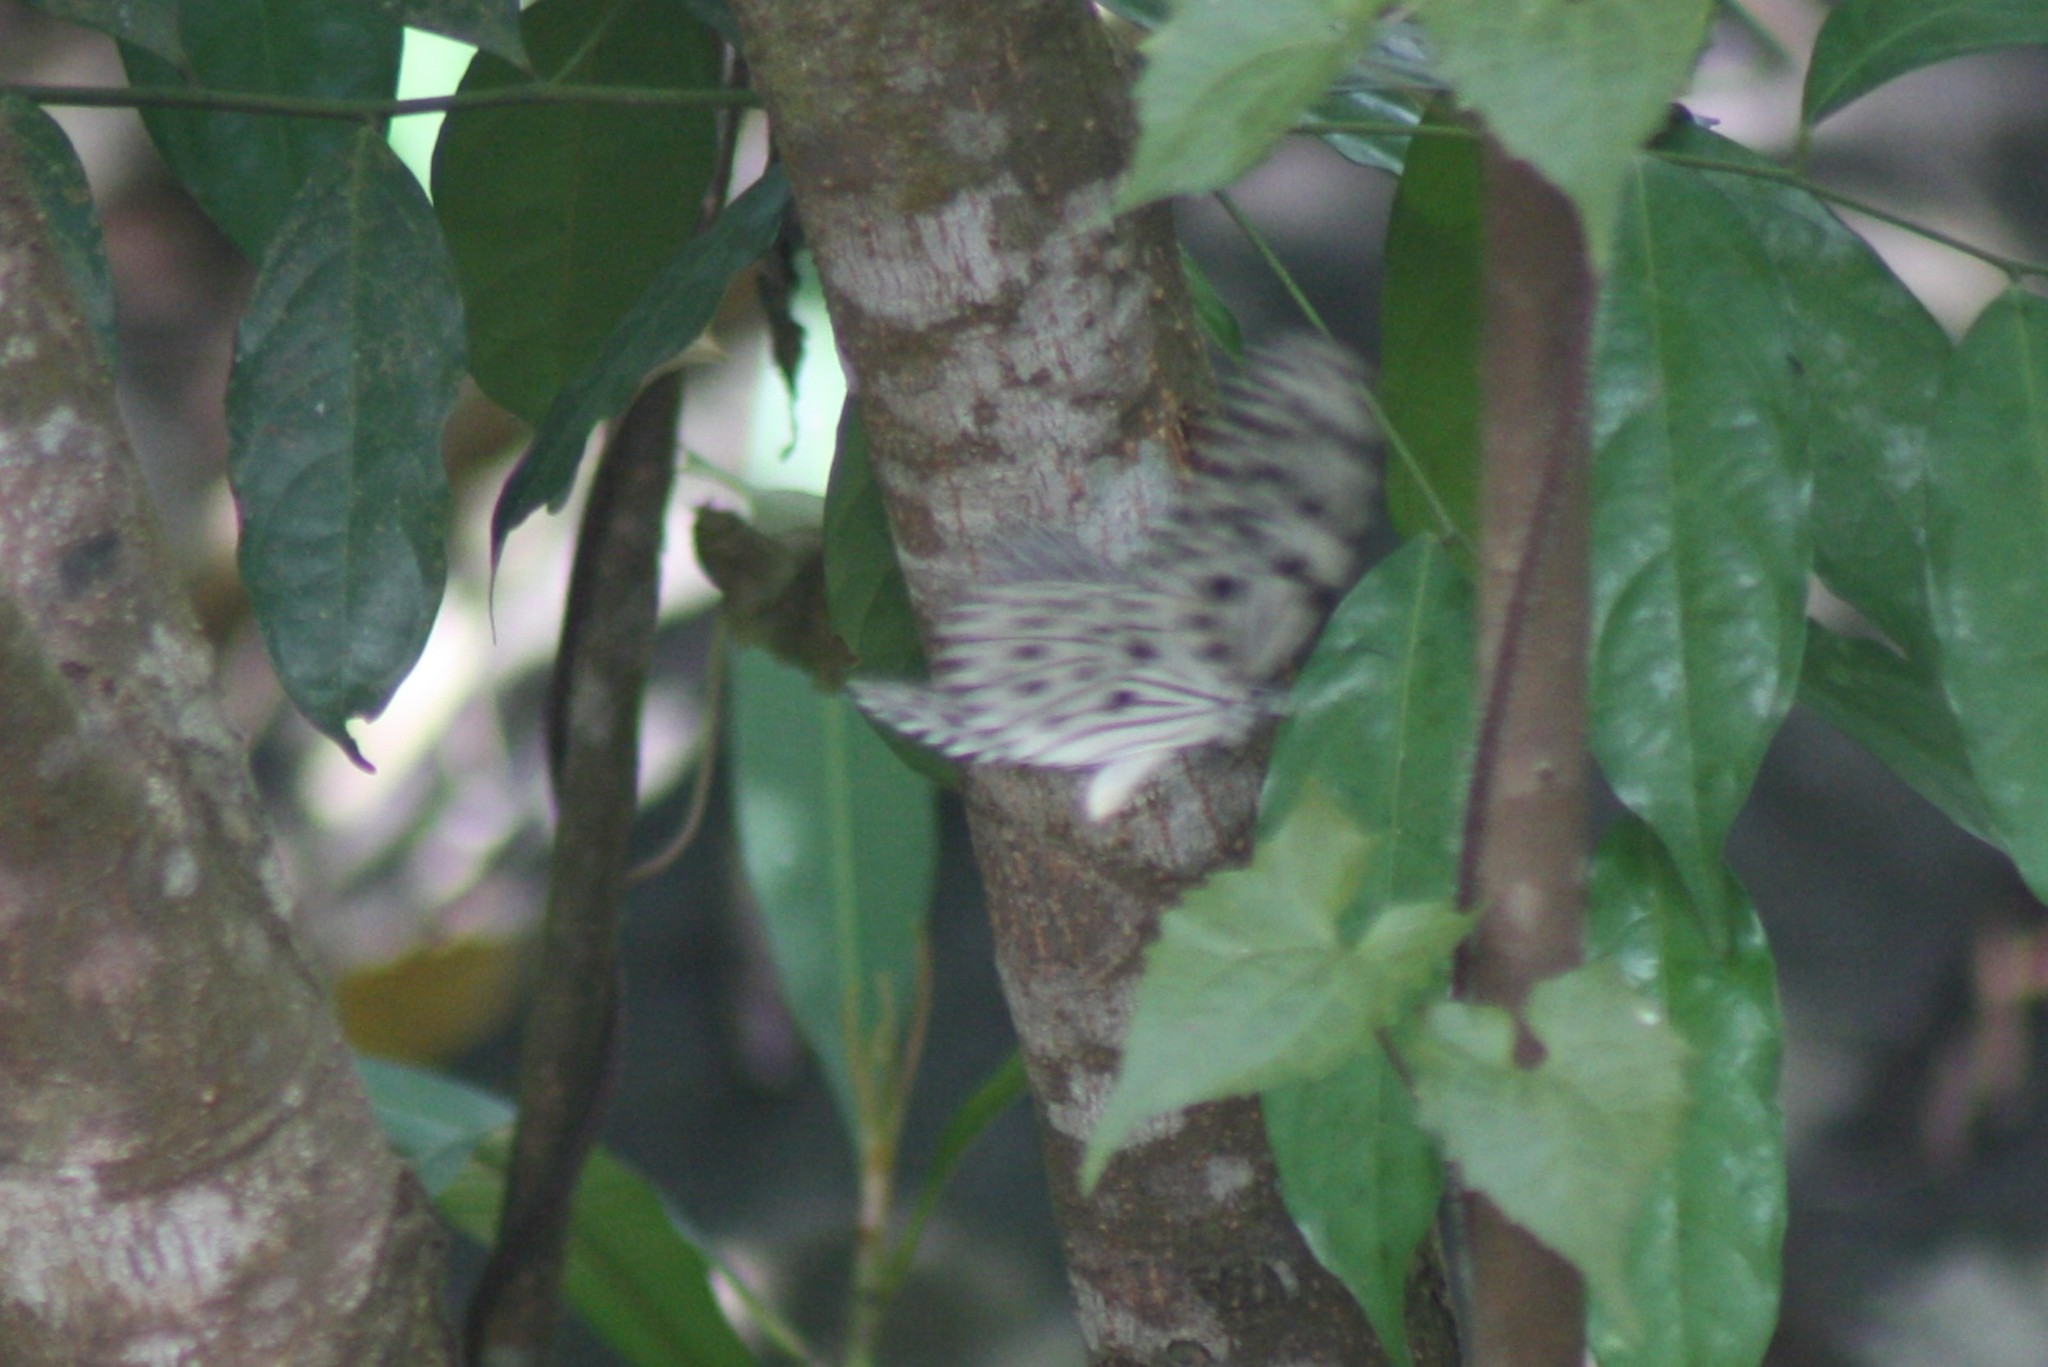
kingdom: Animalia
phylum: Arthropoda
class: Insecta
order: Lepidoptera
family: Nymphalidae
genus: Idea
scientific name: Idea malabarica
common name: Malabar tree-nymph
